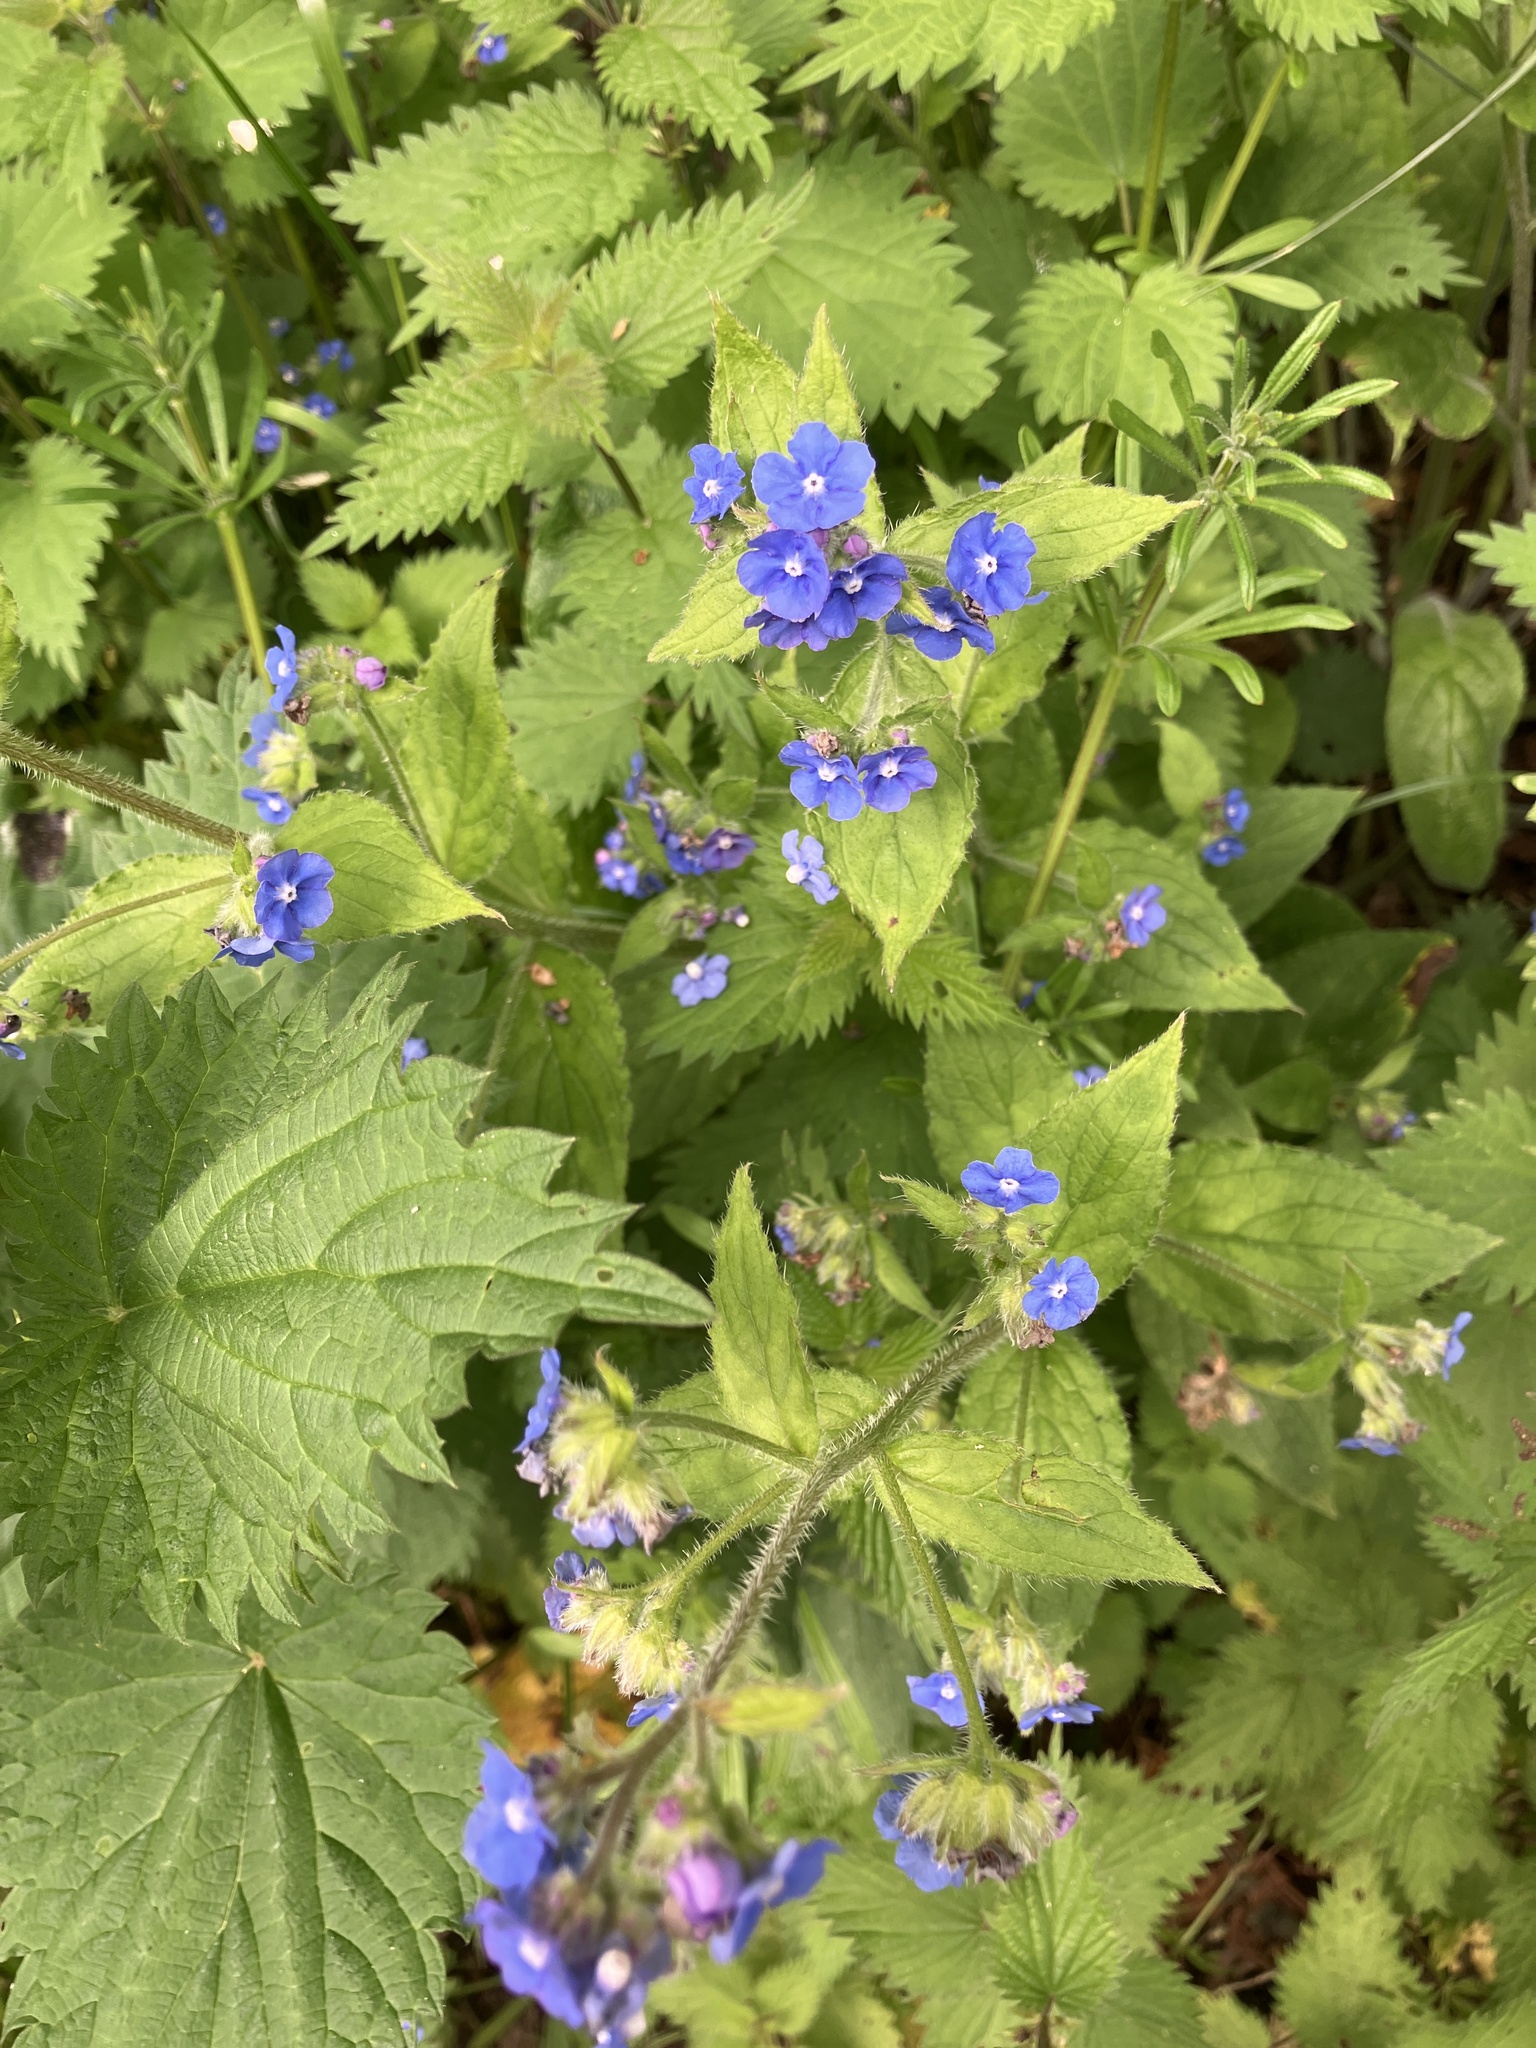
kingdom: Plantae
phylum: Tracheophyta
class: Magnoliopsida
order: Boraginales
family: Boraginaceae
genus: Pentaglottis
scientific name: Pentaglottis sempervirens
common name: Green alkanet
